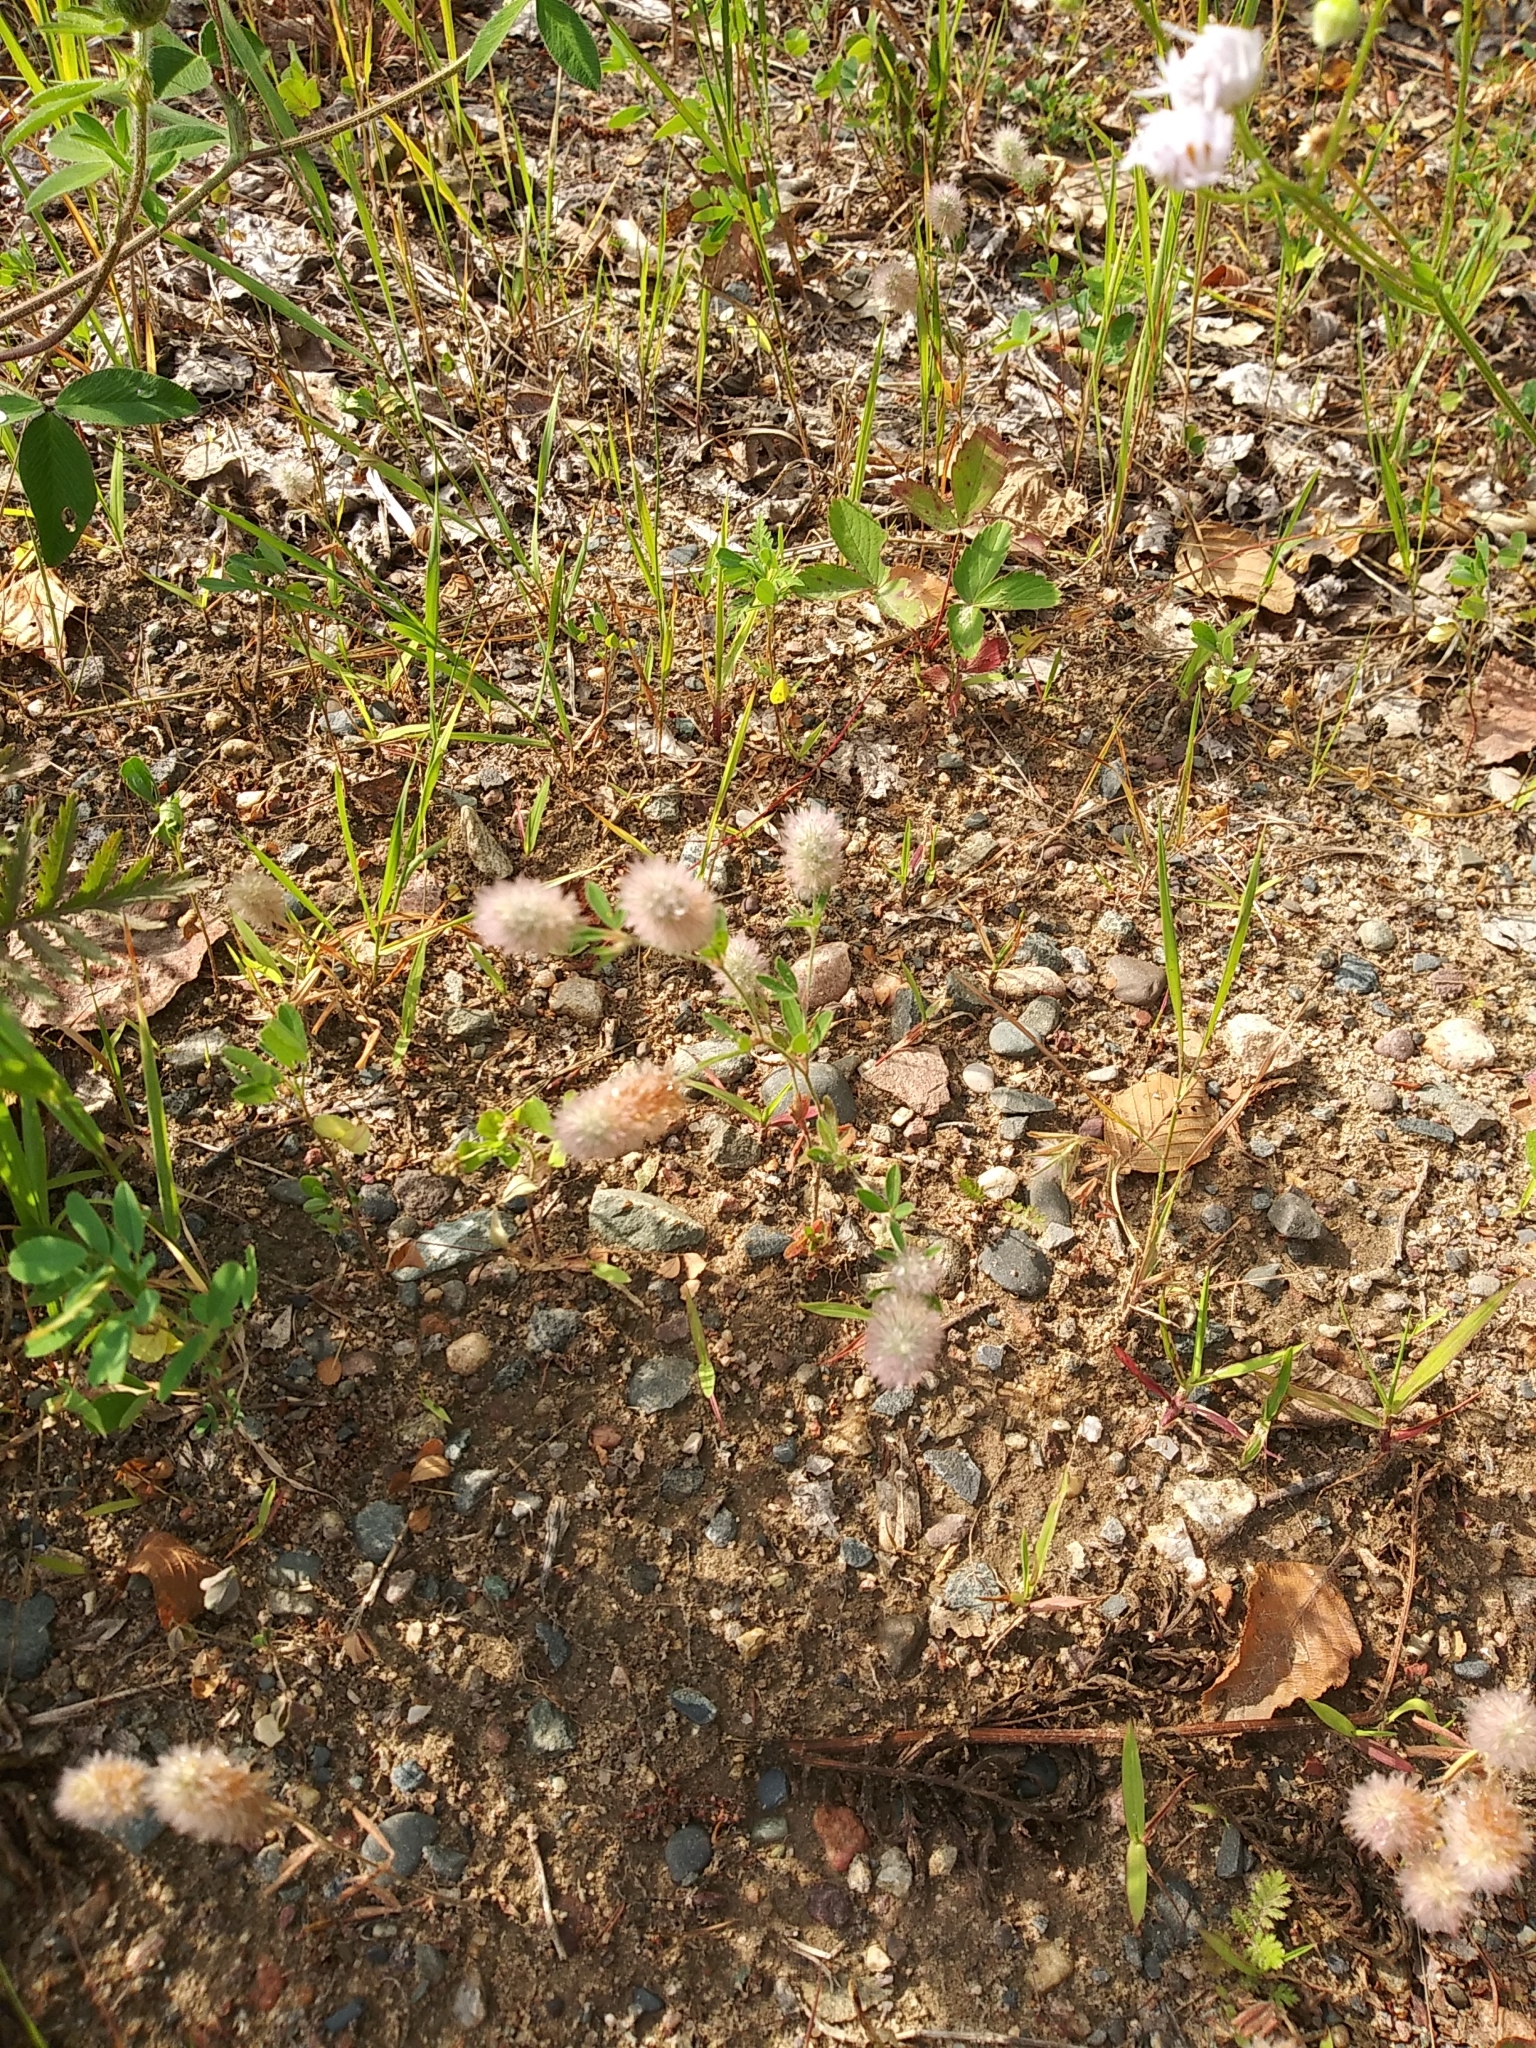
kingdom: Plantae
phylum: Tracheophyta
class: Magnoliopsida
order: Fabales
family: Fabaceae
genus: Trifolium
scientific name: Trifolium arvense
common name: Hare's-foot clover
